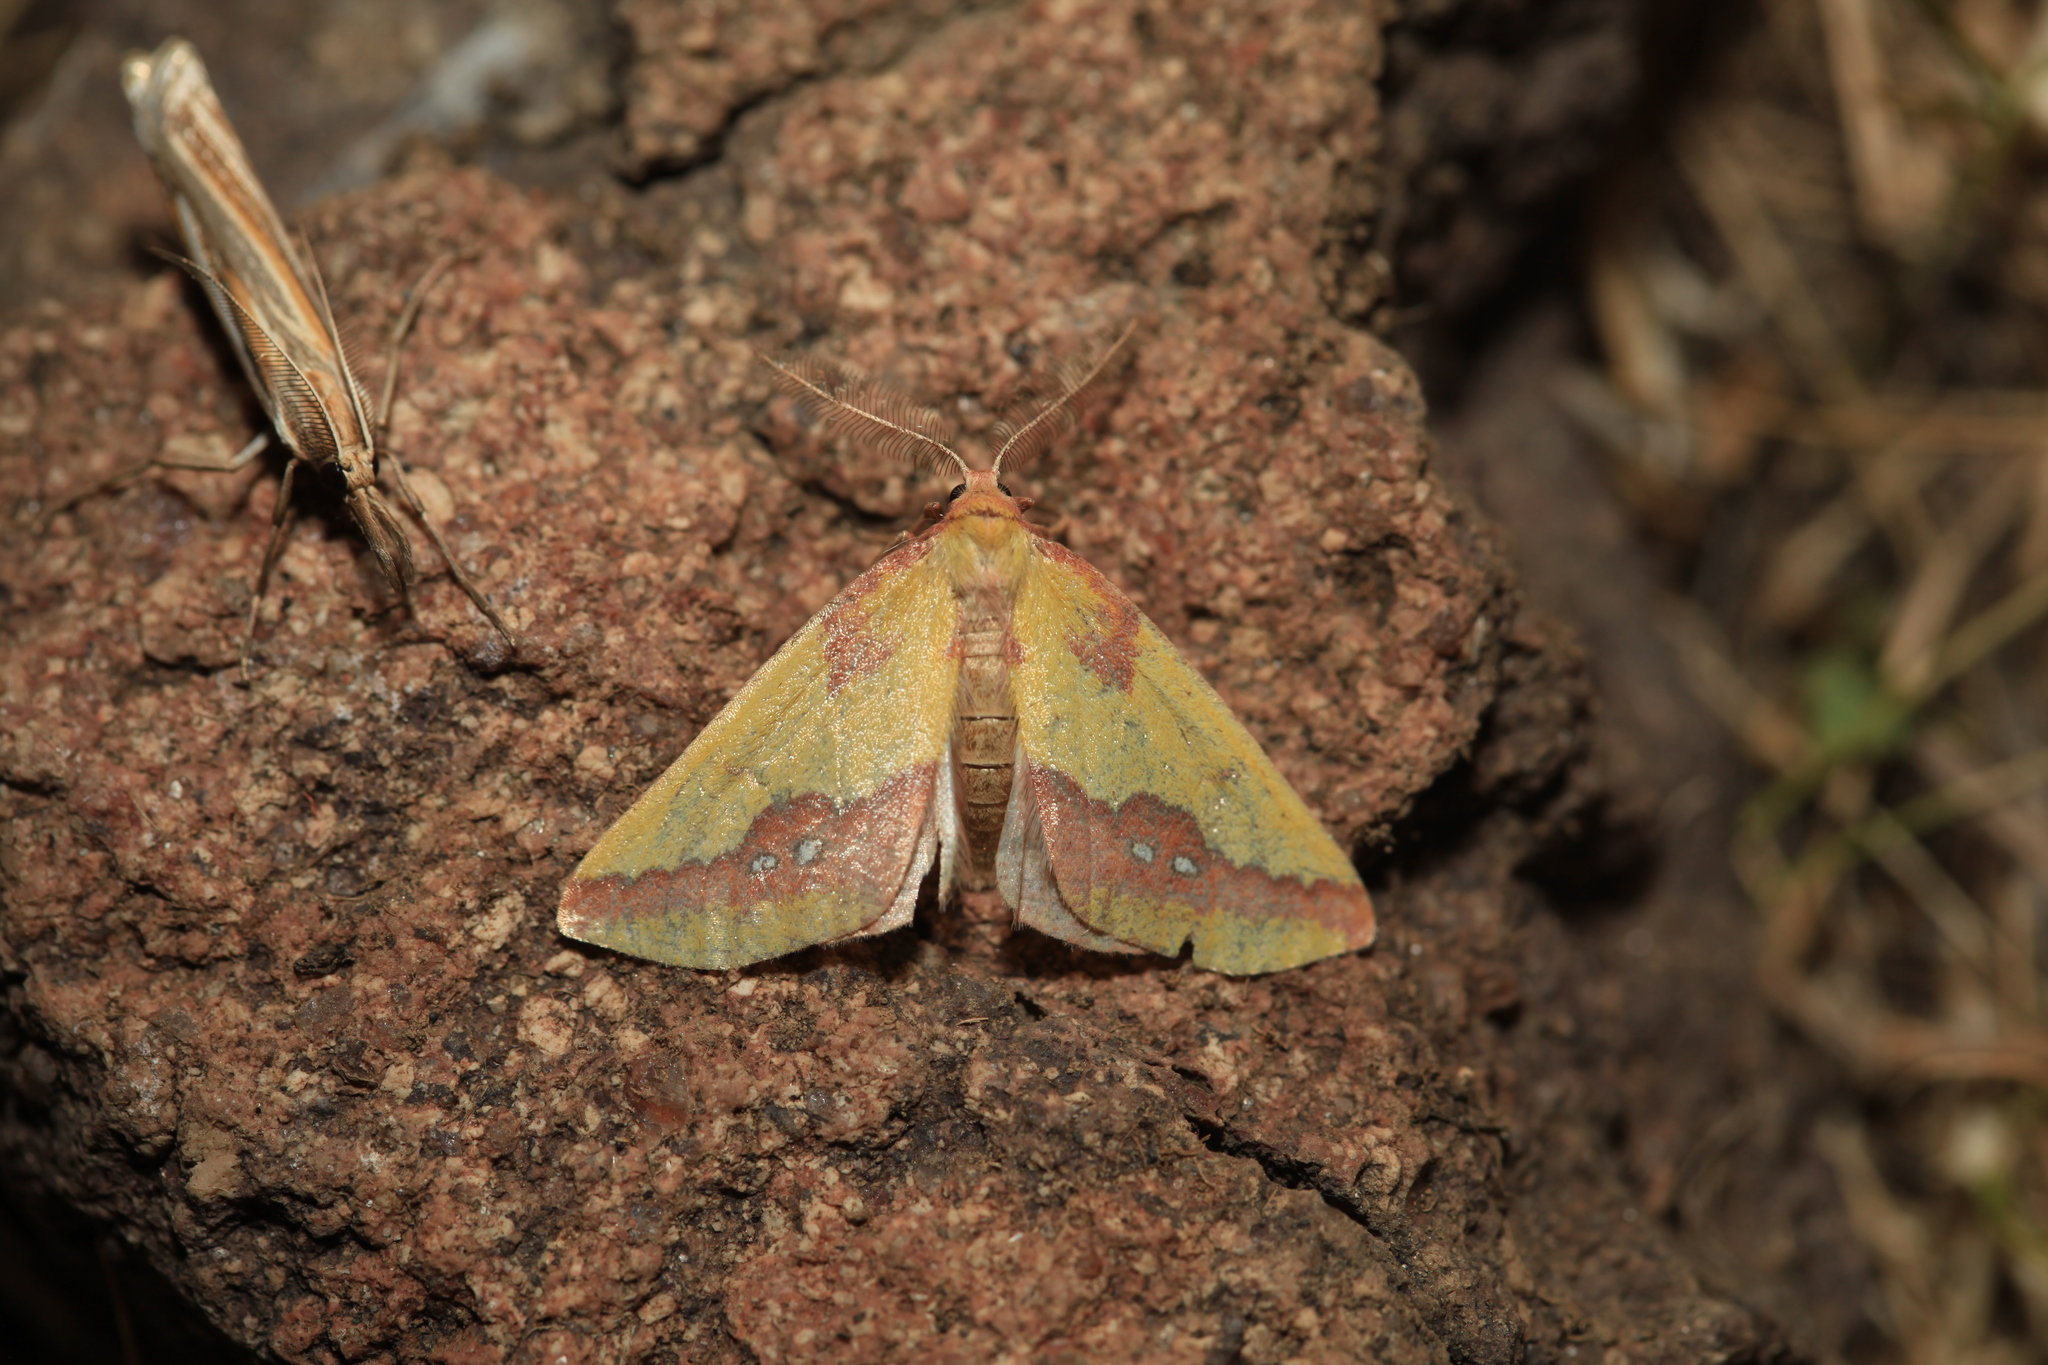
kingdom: Animalia
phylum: Arthropoda
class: Insecta
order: Lepidoptera
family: Geometridae
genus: Apocolotois
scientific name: Apocolotois almatensis
